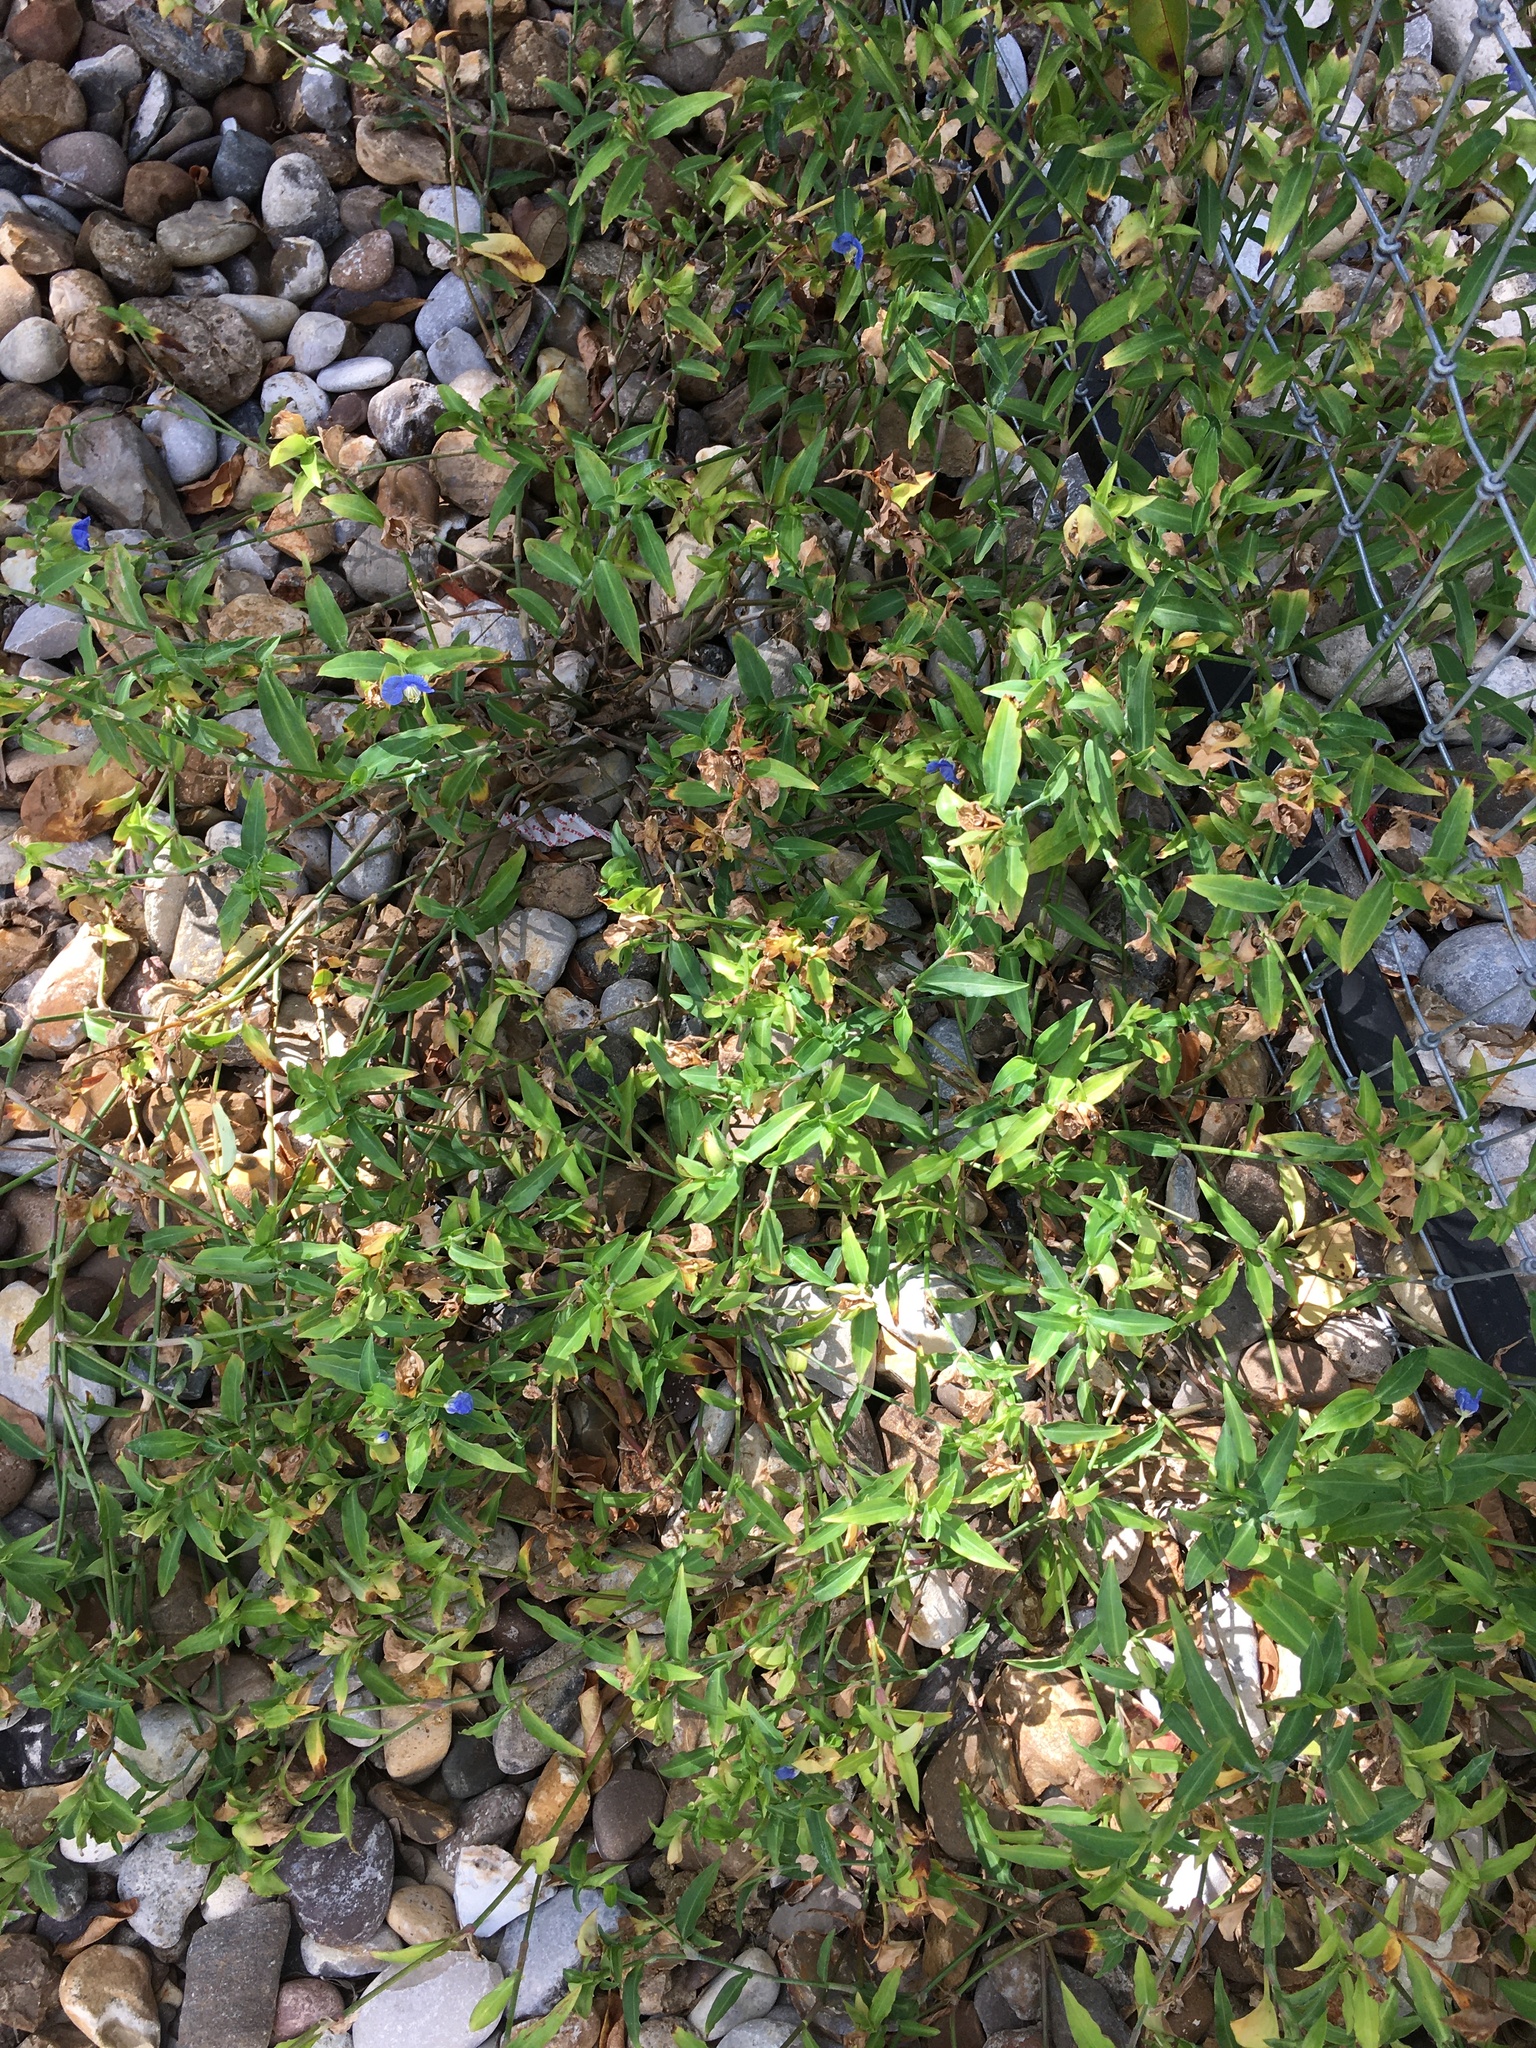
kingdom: Plantae
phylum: Tracheophyta
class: Liliopsida
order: Commelinales
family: Commelinaceae
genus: Commelina
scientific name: Commelina erecta
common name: Blousel blommetjie
